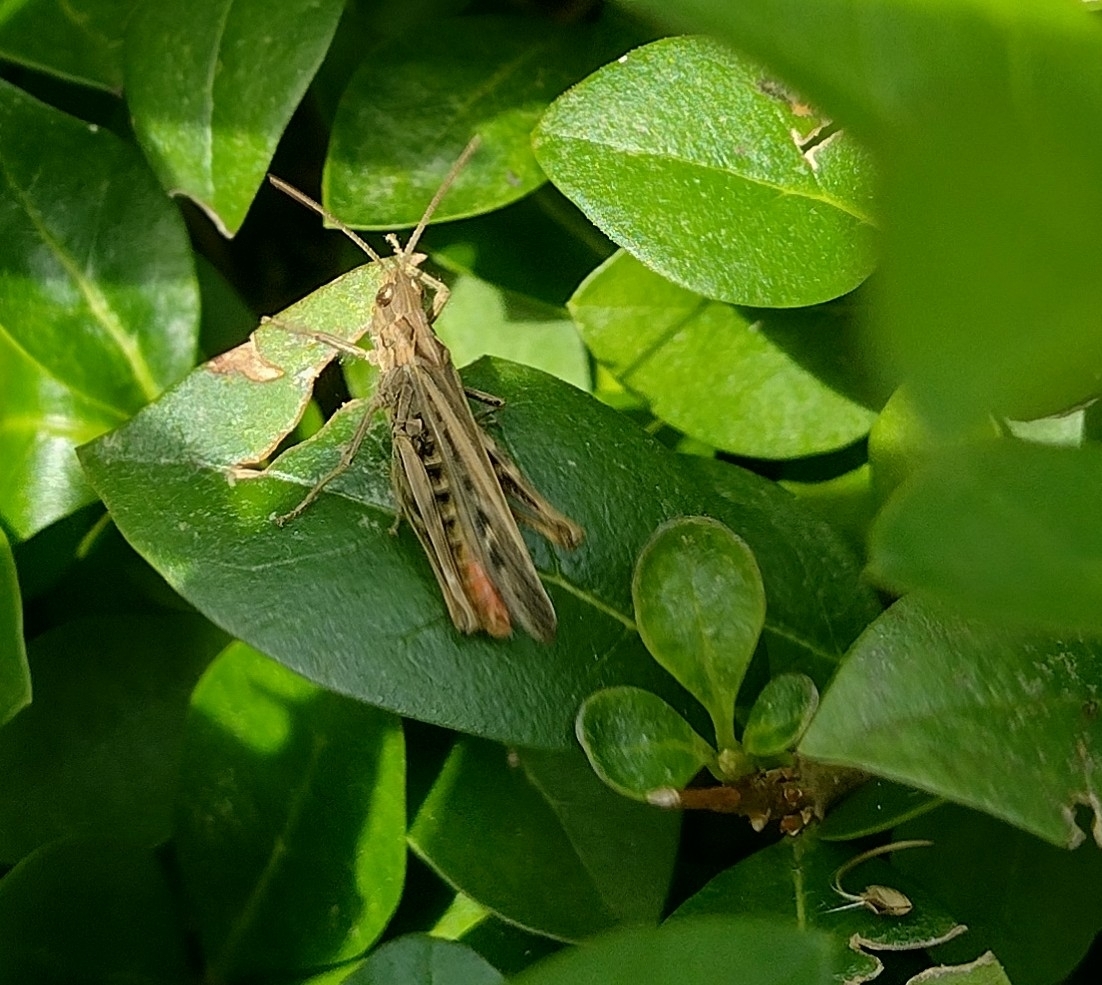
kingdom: Animalia
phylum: Arthropoda
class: Insecta
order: Orthoptera
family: Acrididae
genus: Chorthippus
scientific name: Chorthippus brunneus
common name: Field grasshopper
